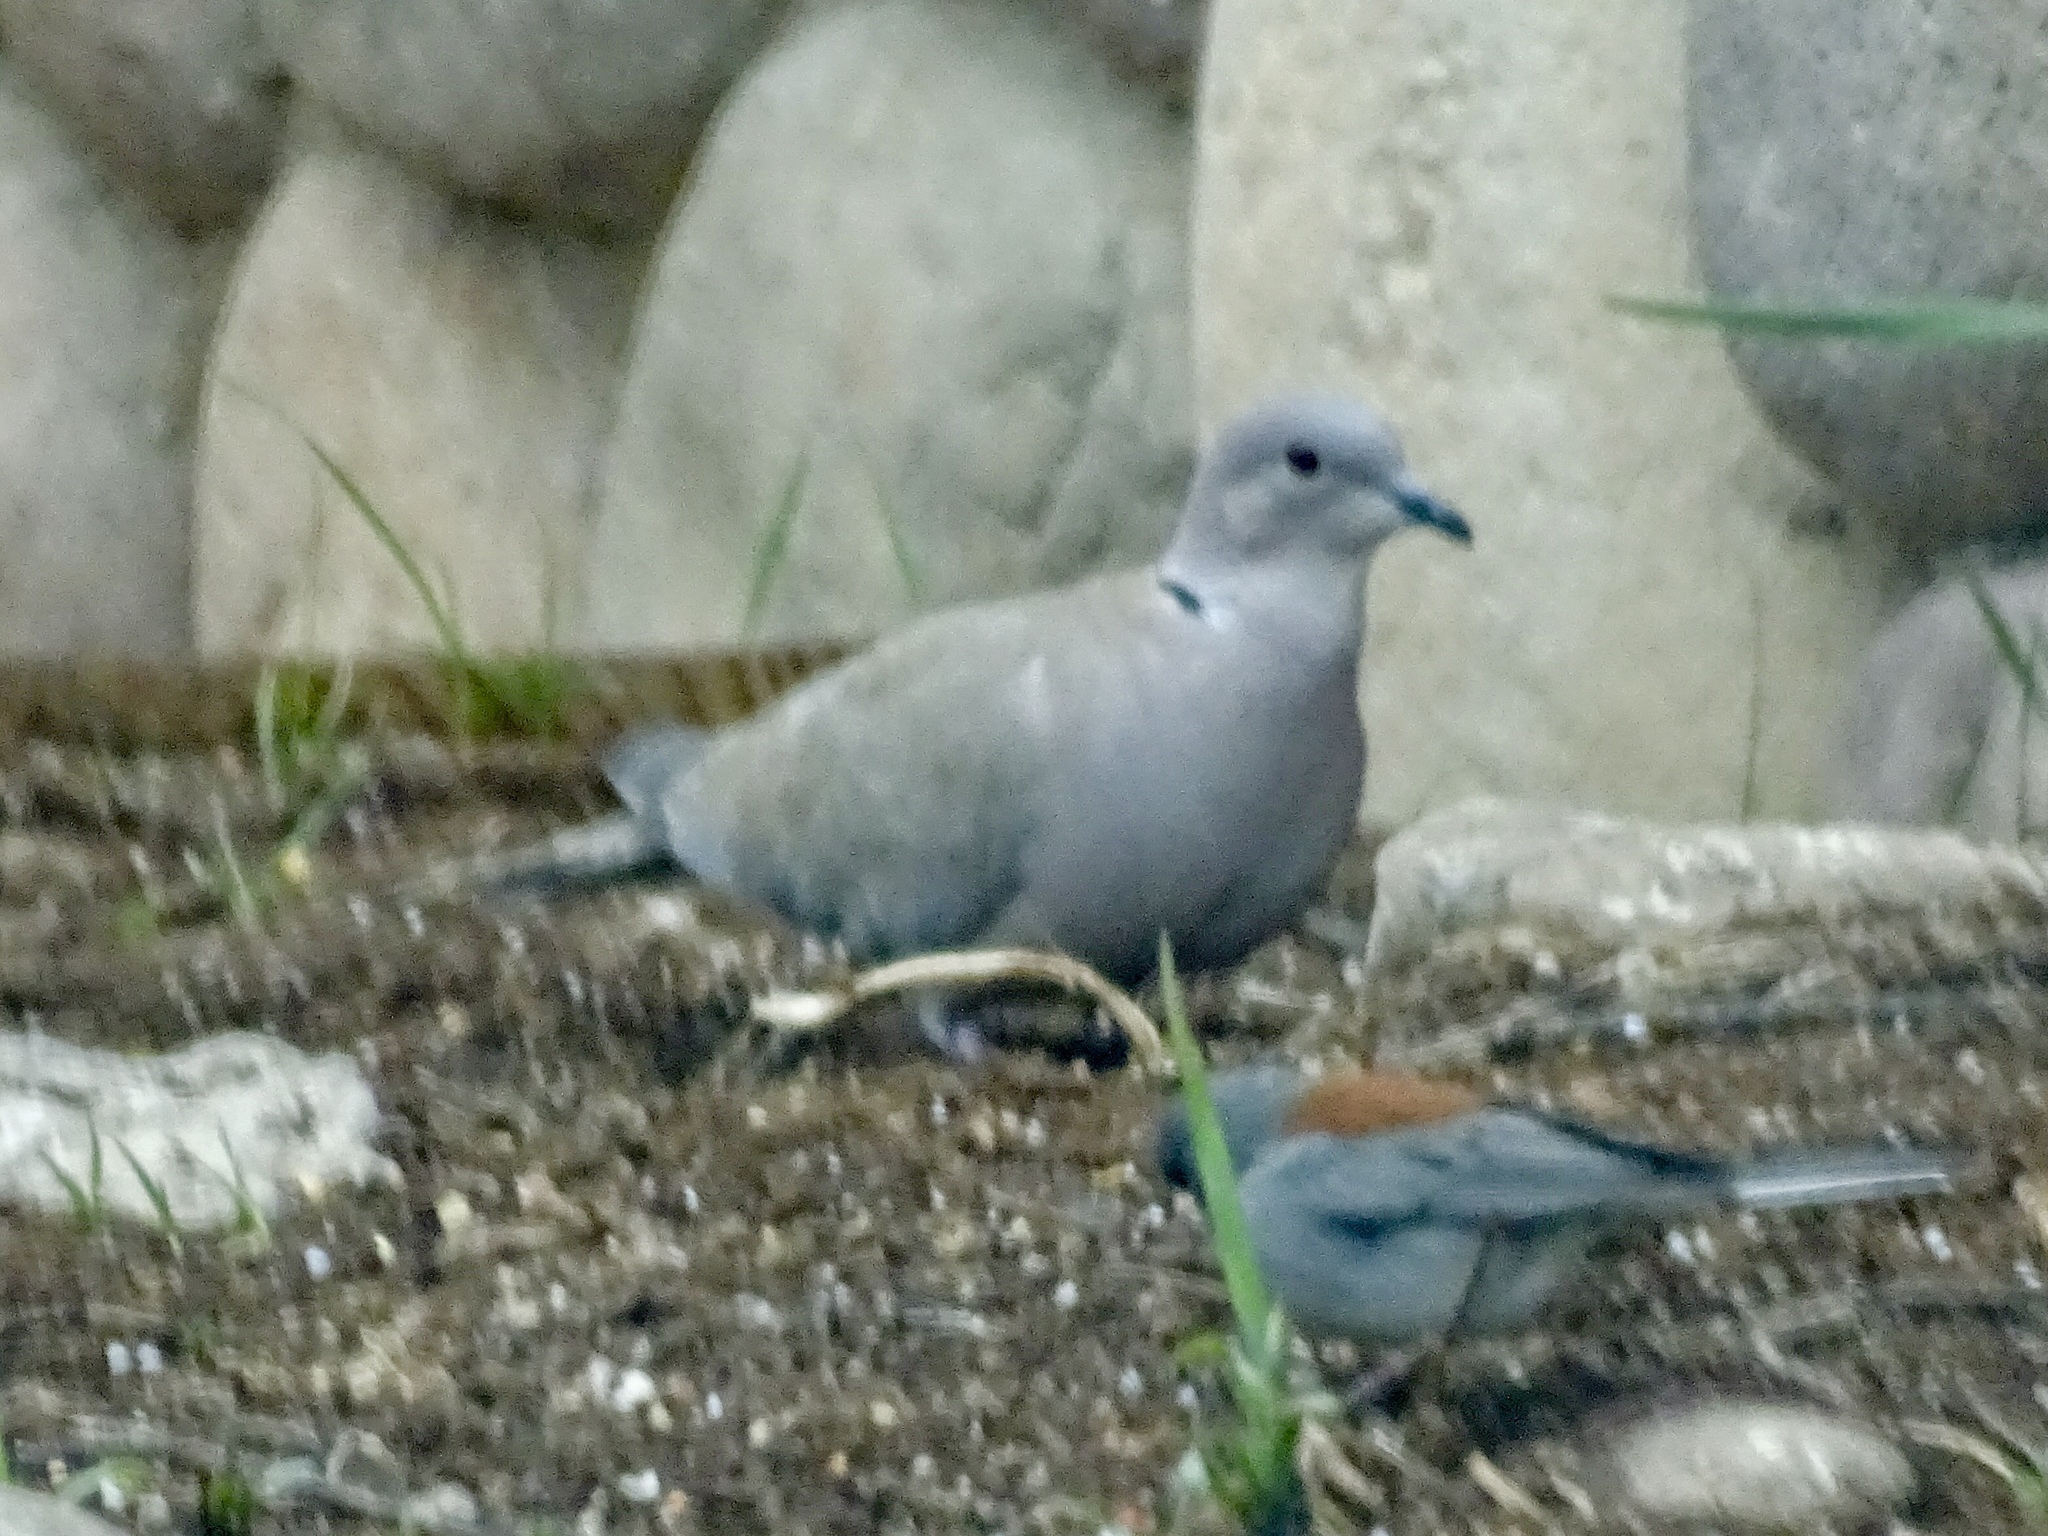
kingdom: Animalia
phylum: Chordata
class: Aves
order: Columbiformes
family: Columbidae
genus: Streptopelia
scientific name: Streptopelia decaocto
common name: Eurasian collared dove
